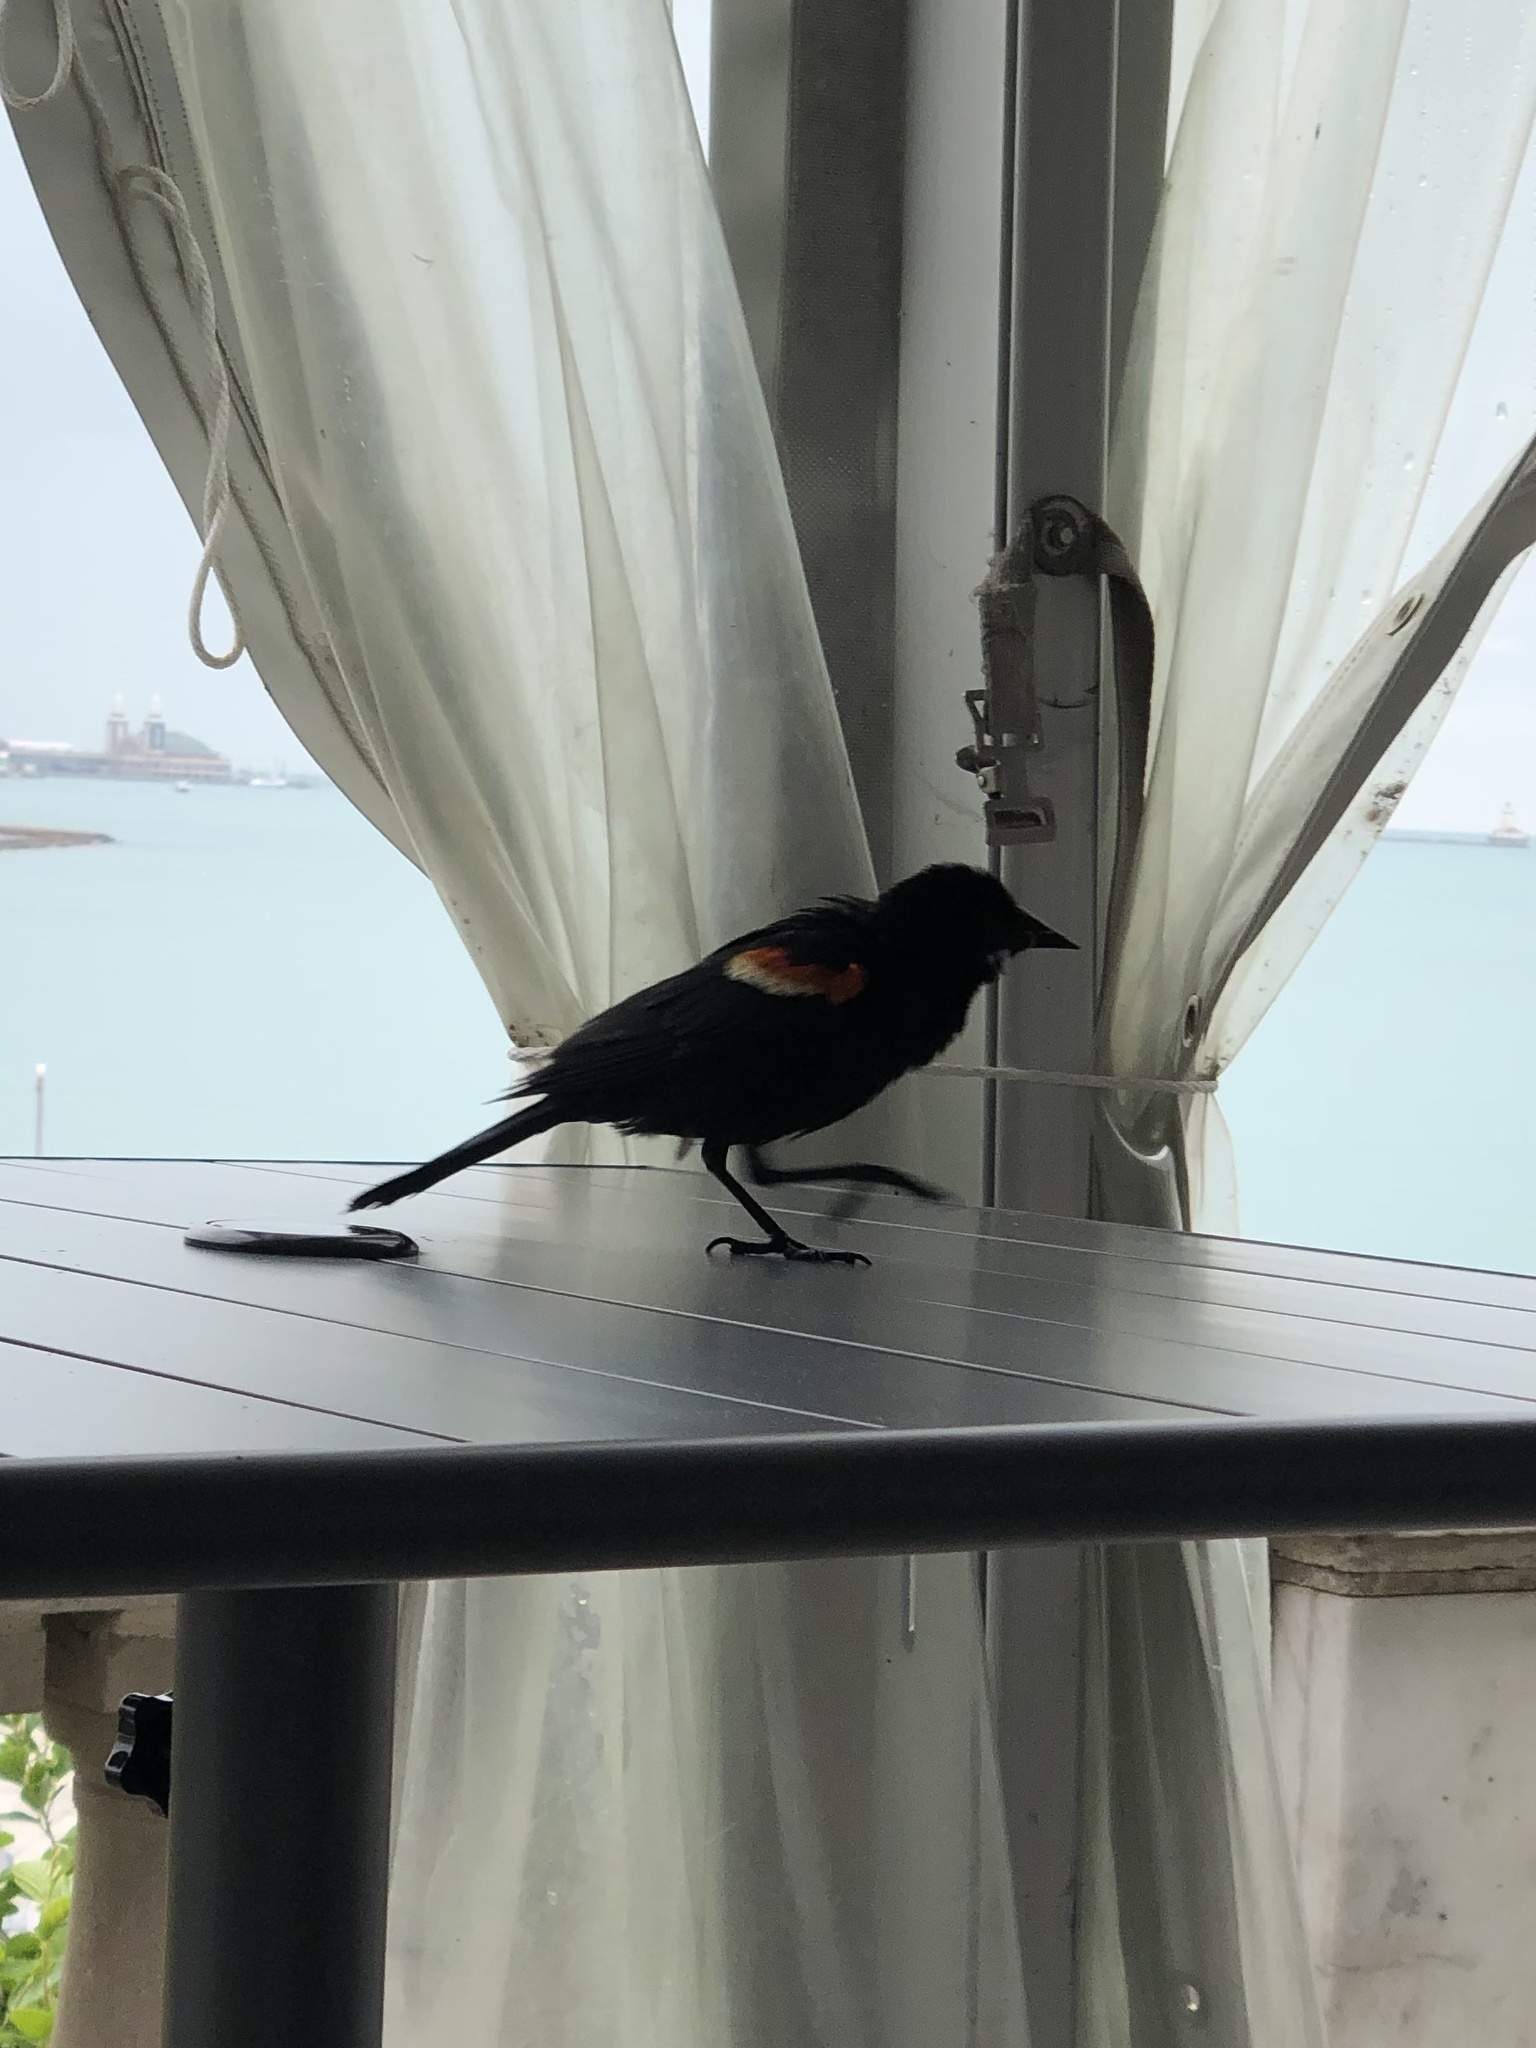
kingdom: Animalia
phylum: Chordata
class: Aves
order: Passeriformes
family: Icteridae
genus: Agelaius
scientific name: Agelaius phoeniceus
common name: Red-winged blackbird
